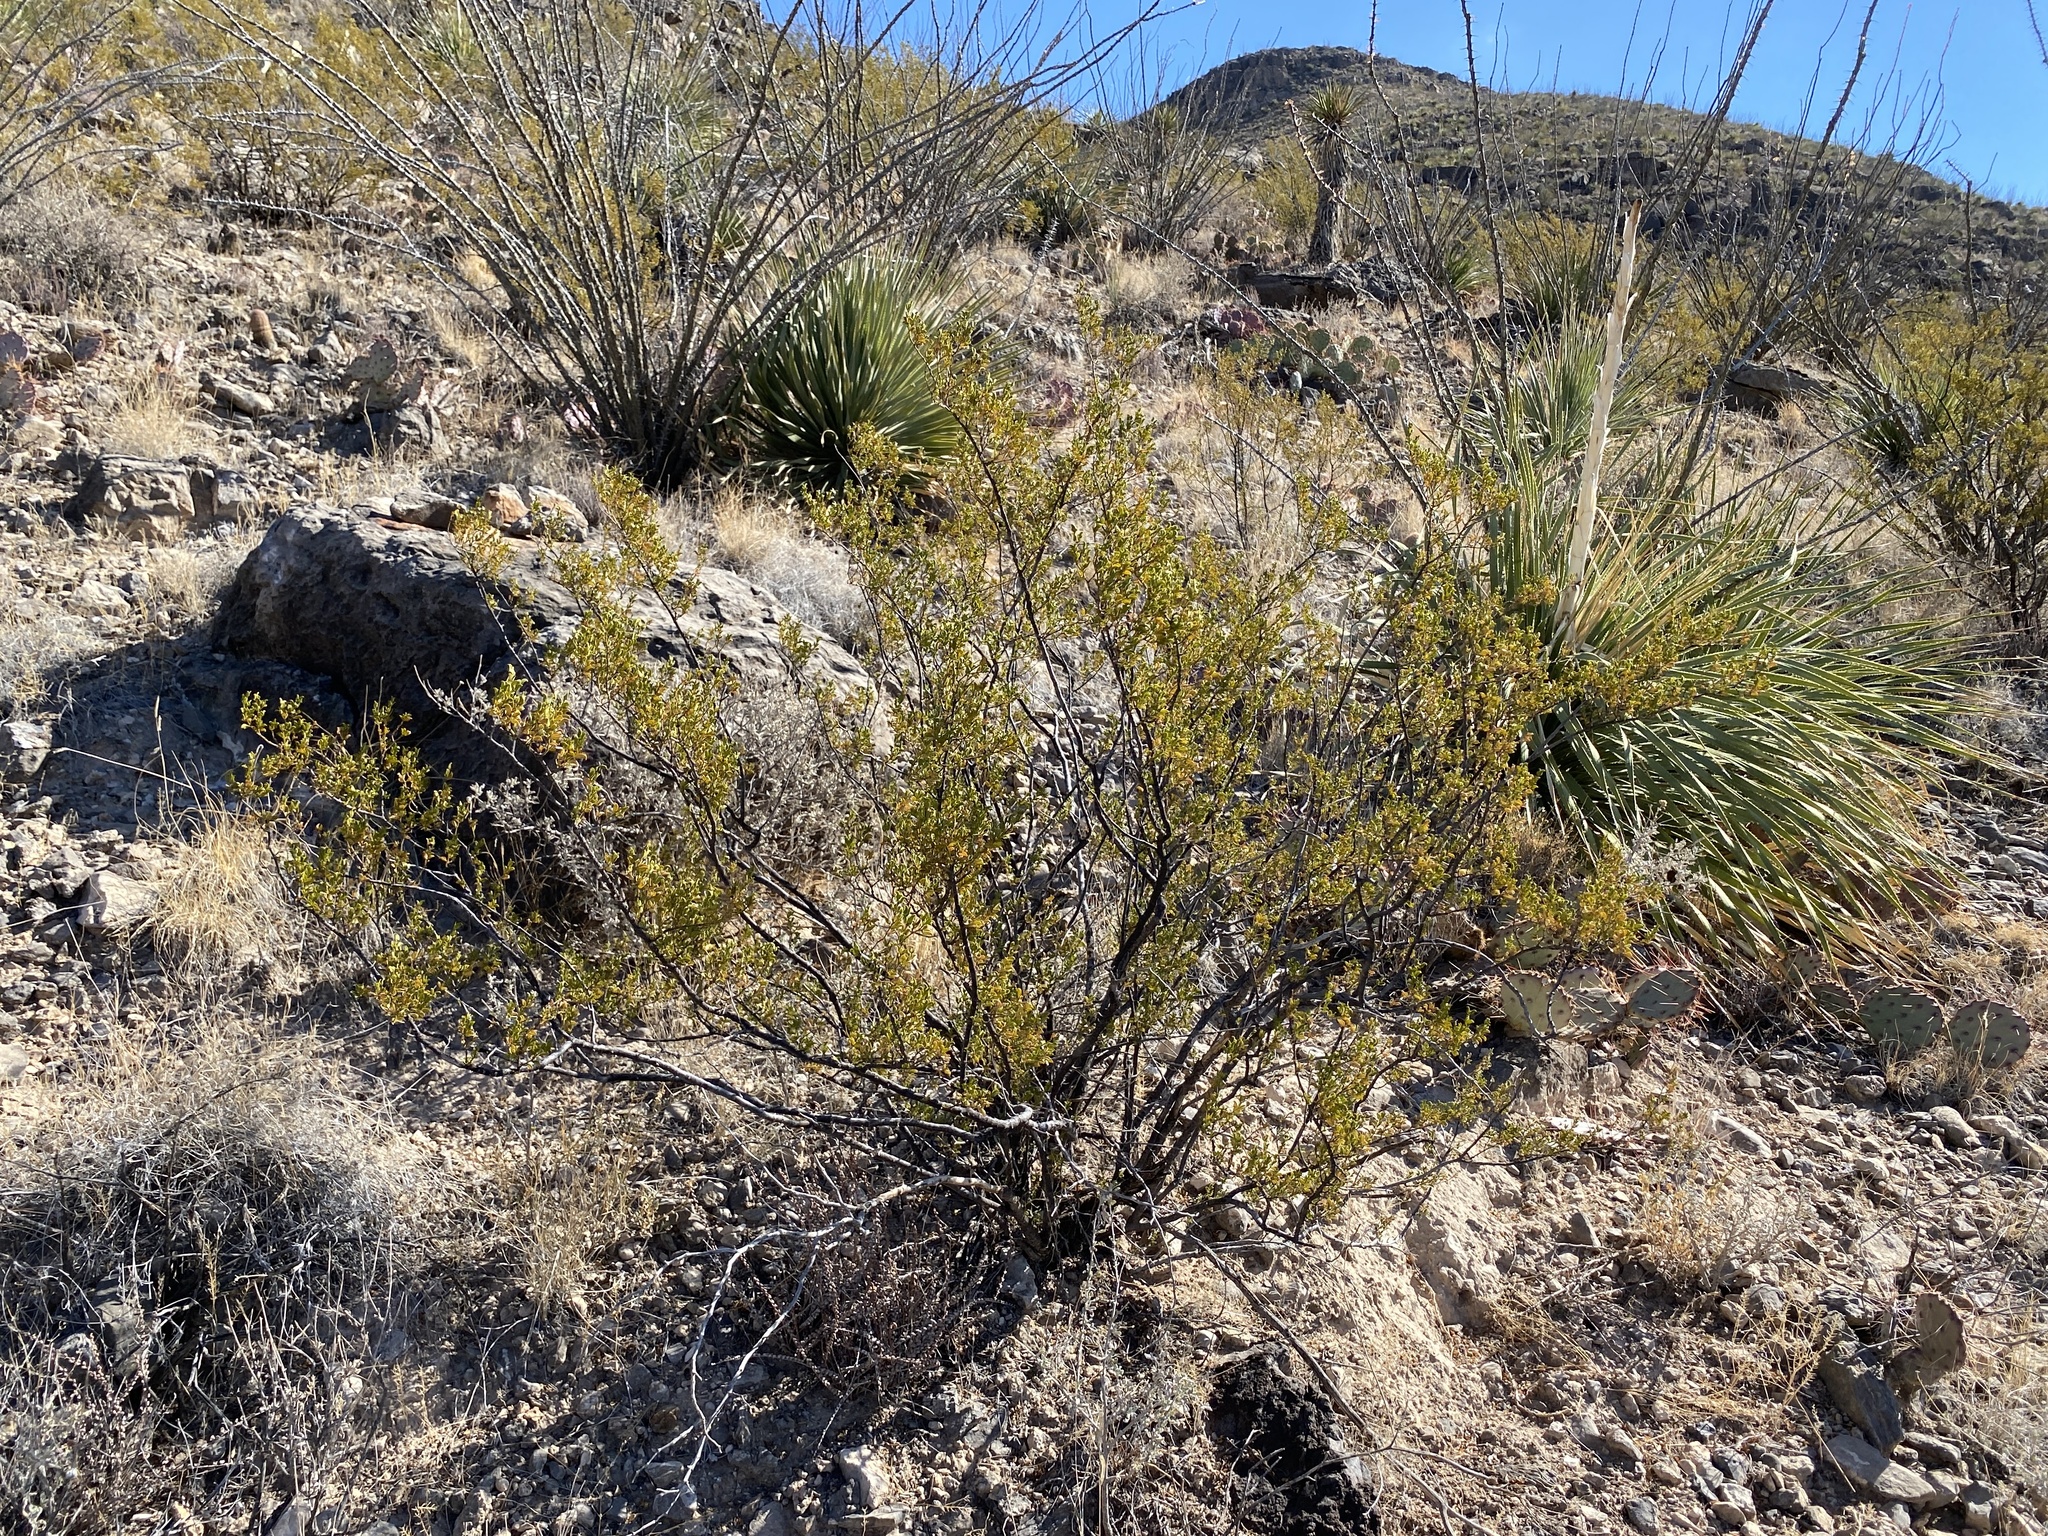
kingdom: Plantae
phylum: Tracheophyta
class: Magnoliopsida
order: Zygophyllales
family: Zygophyllaceae
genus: Larrea
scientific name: Larrea tridentata
